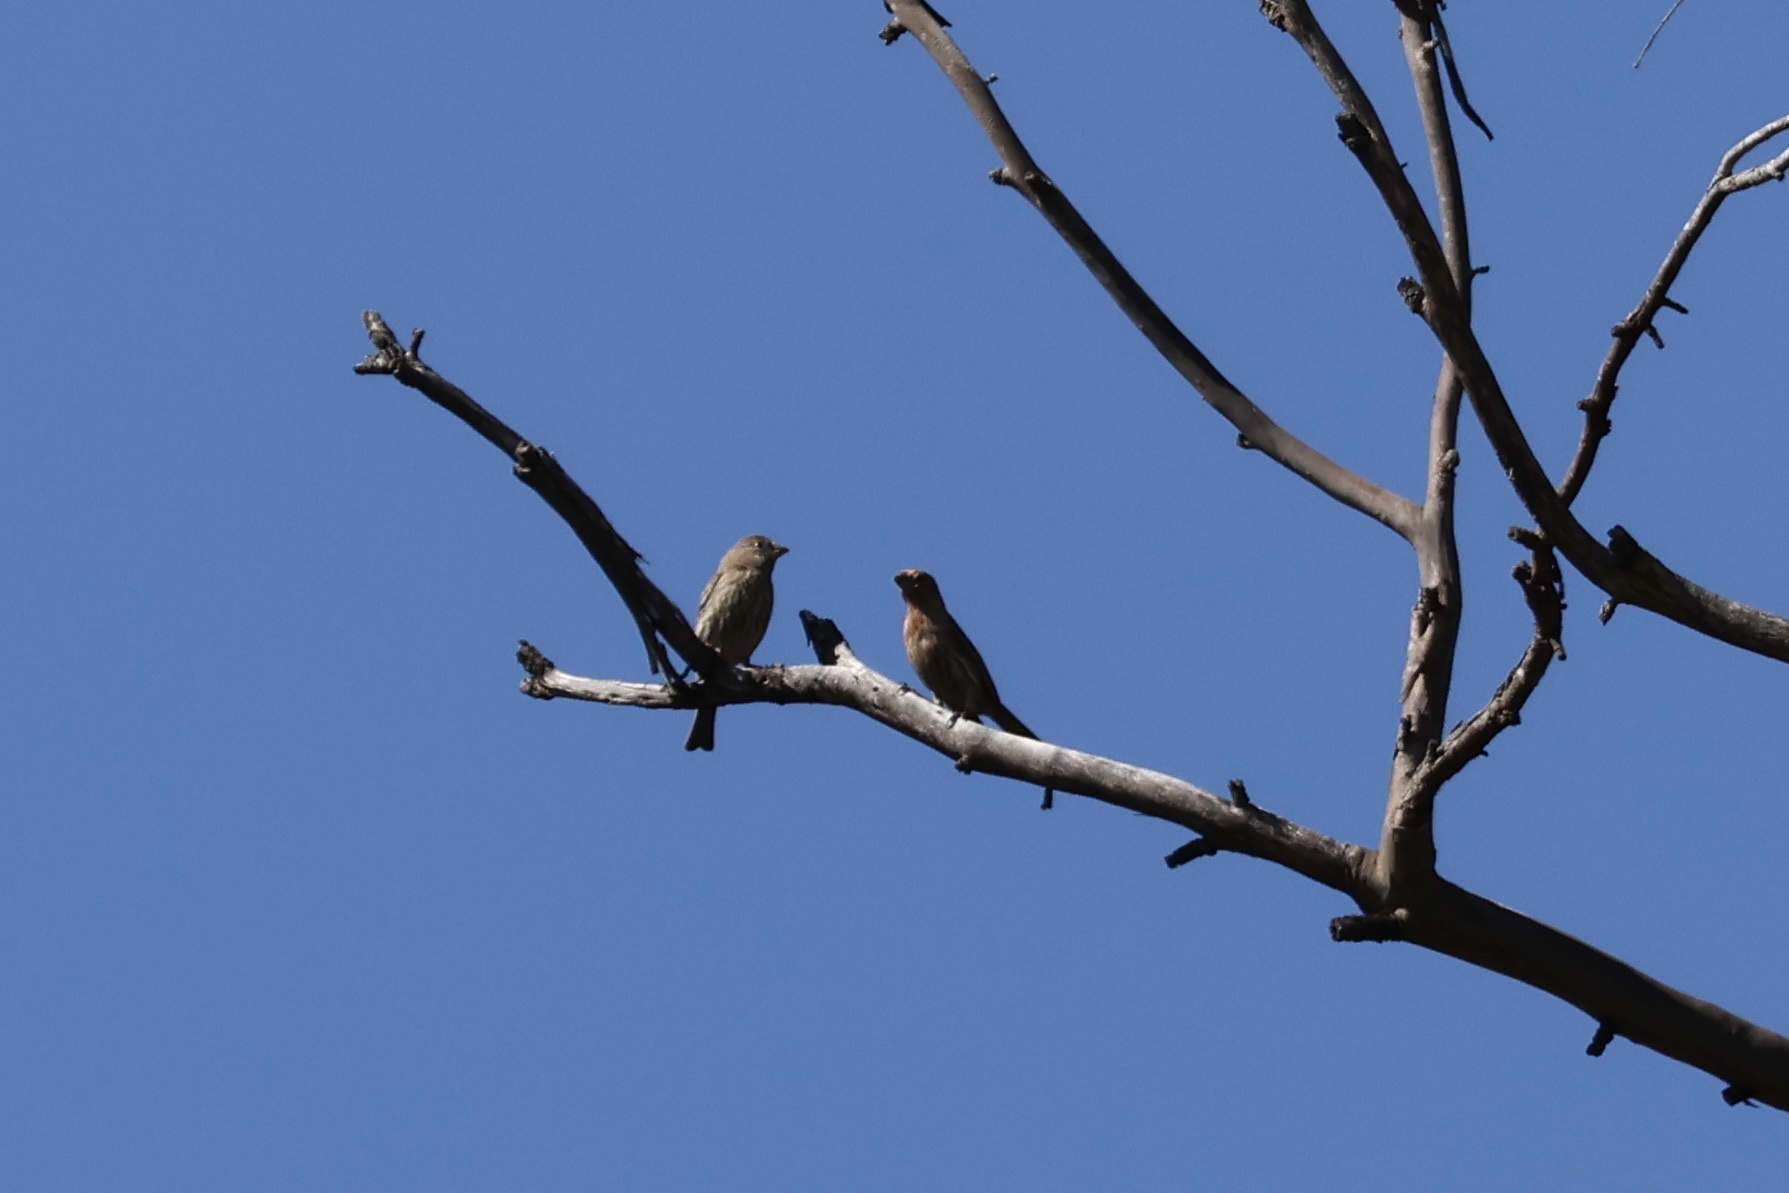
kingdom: Animalia
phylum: Chordata
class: Aves
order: Passeriformes
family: Fringillidae
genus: Haemorhous
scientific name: Haemorhous mexicanus
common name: House finch
